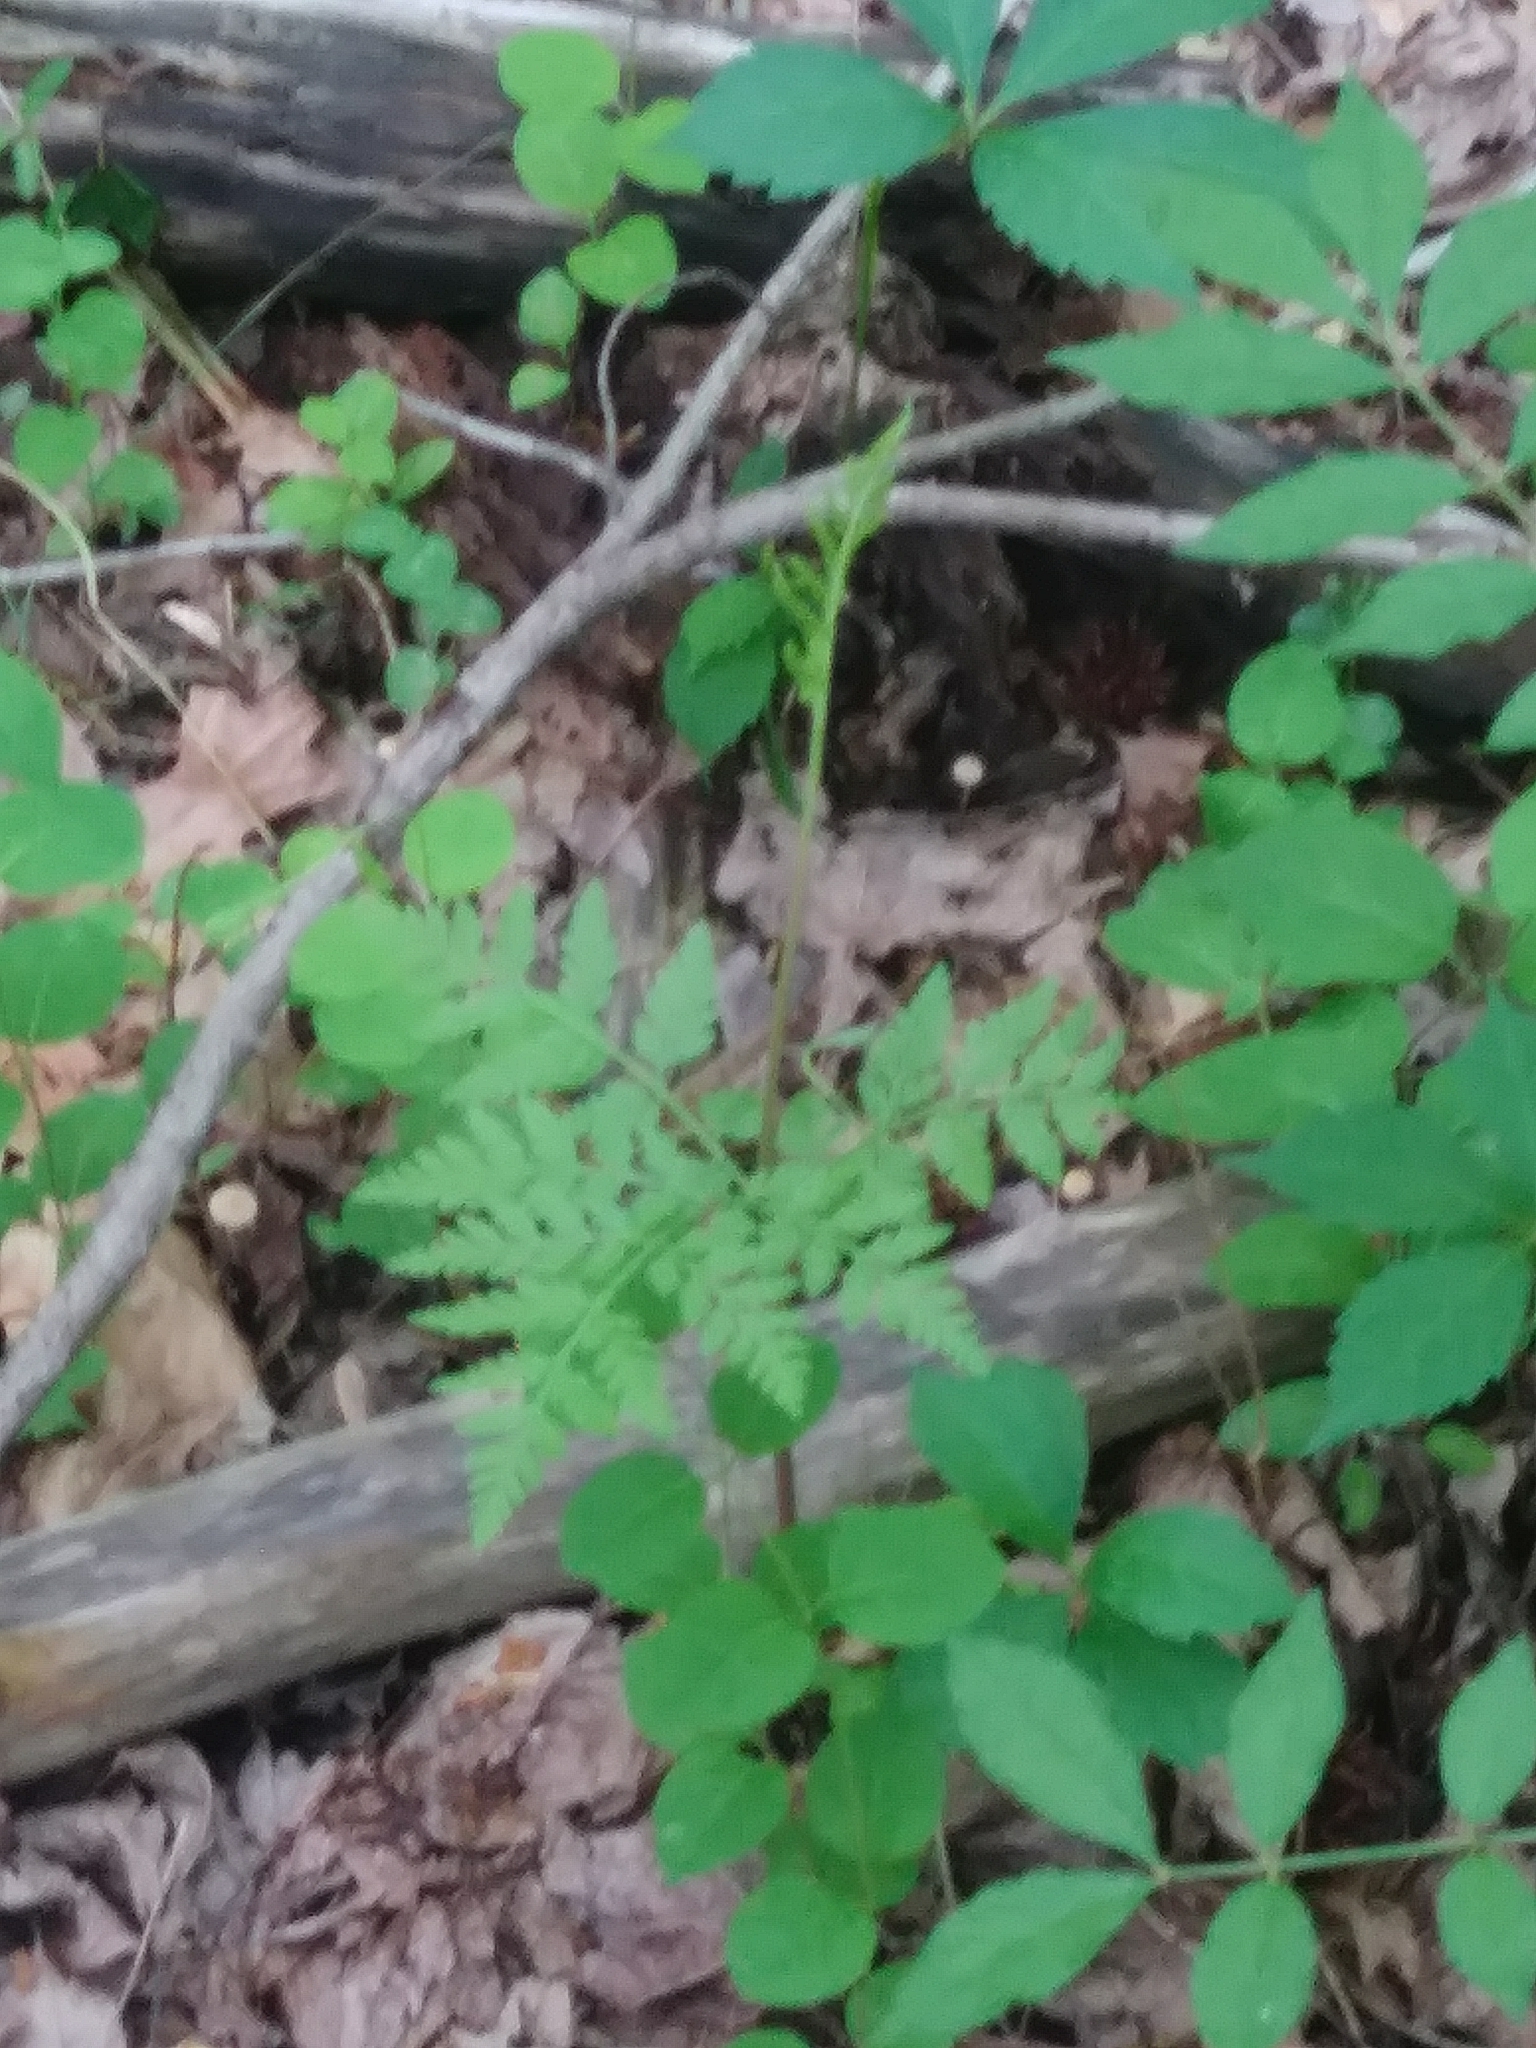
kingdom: Plantae
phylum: Tracheophyta
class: Polypodiopsida
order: Ophioglossales
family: Ophioglossaceae
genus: Botrypus
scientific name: Botrypus virginianus
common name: Common grapefern
